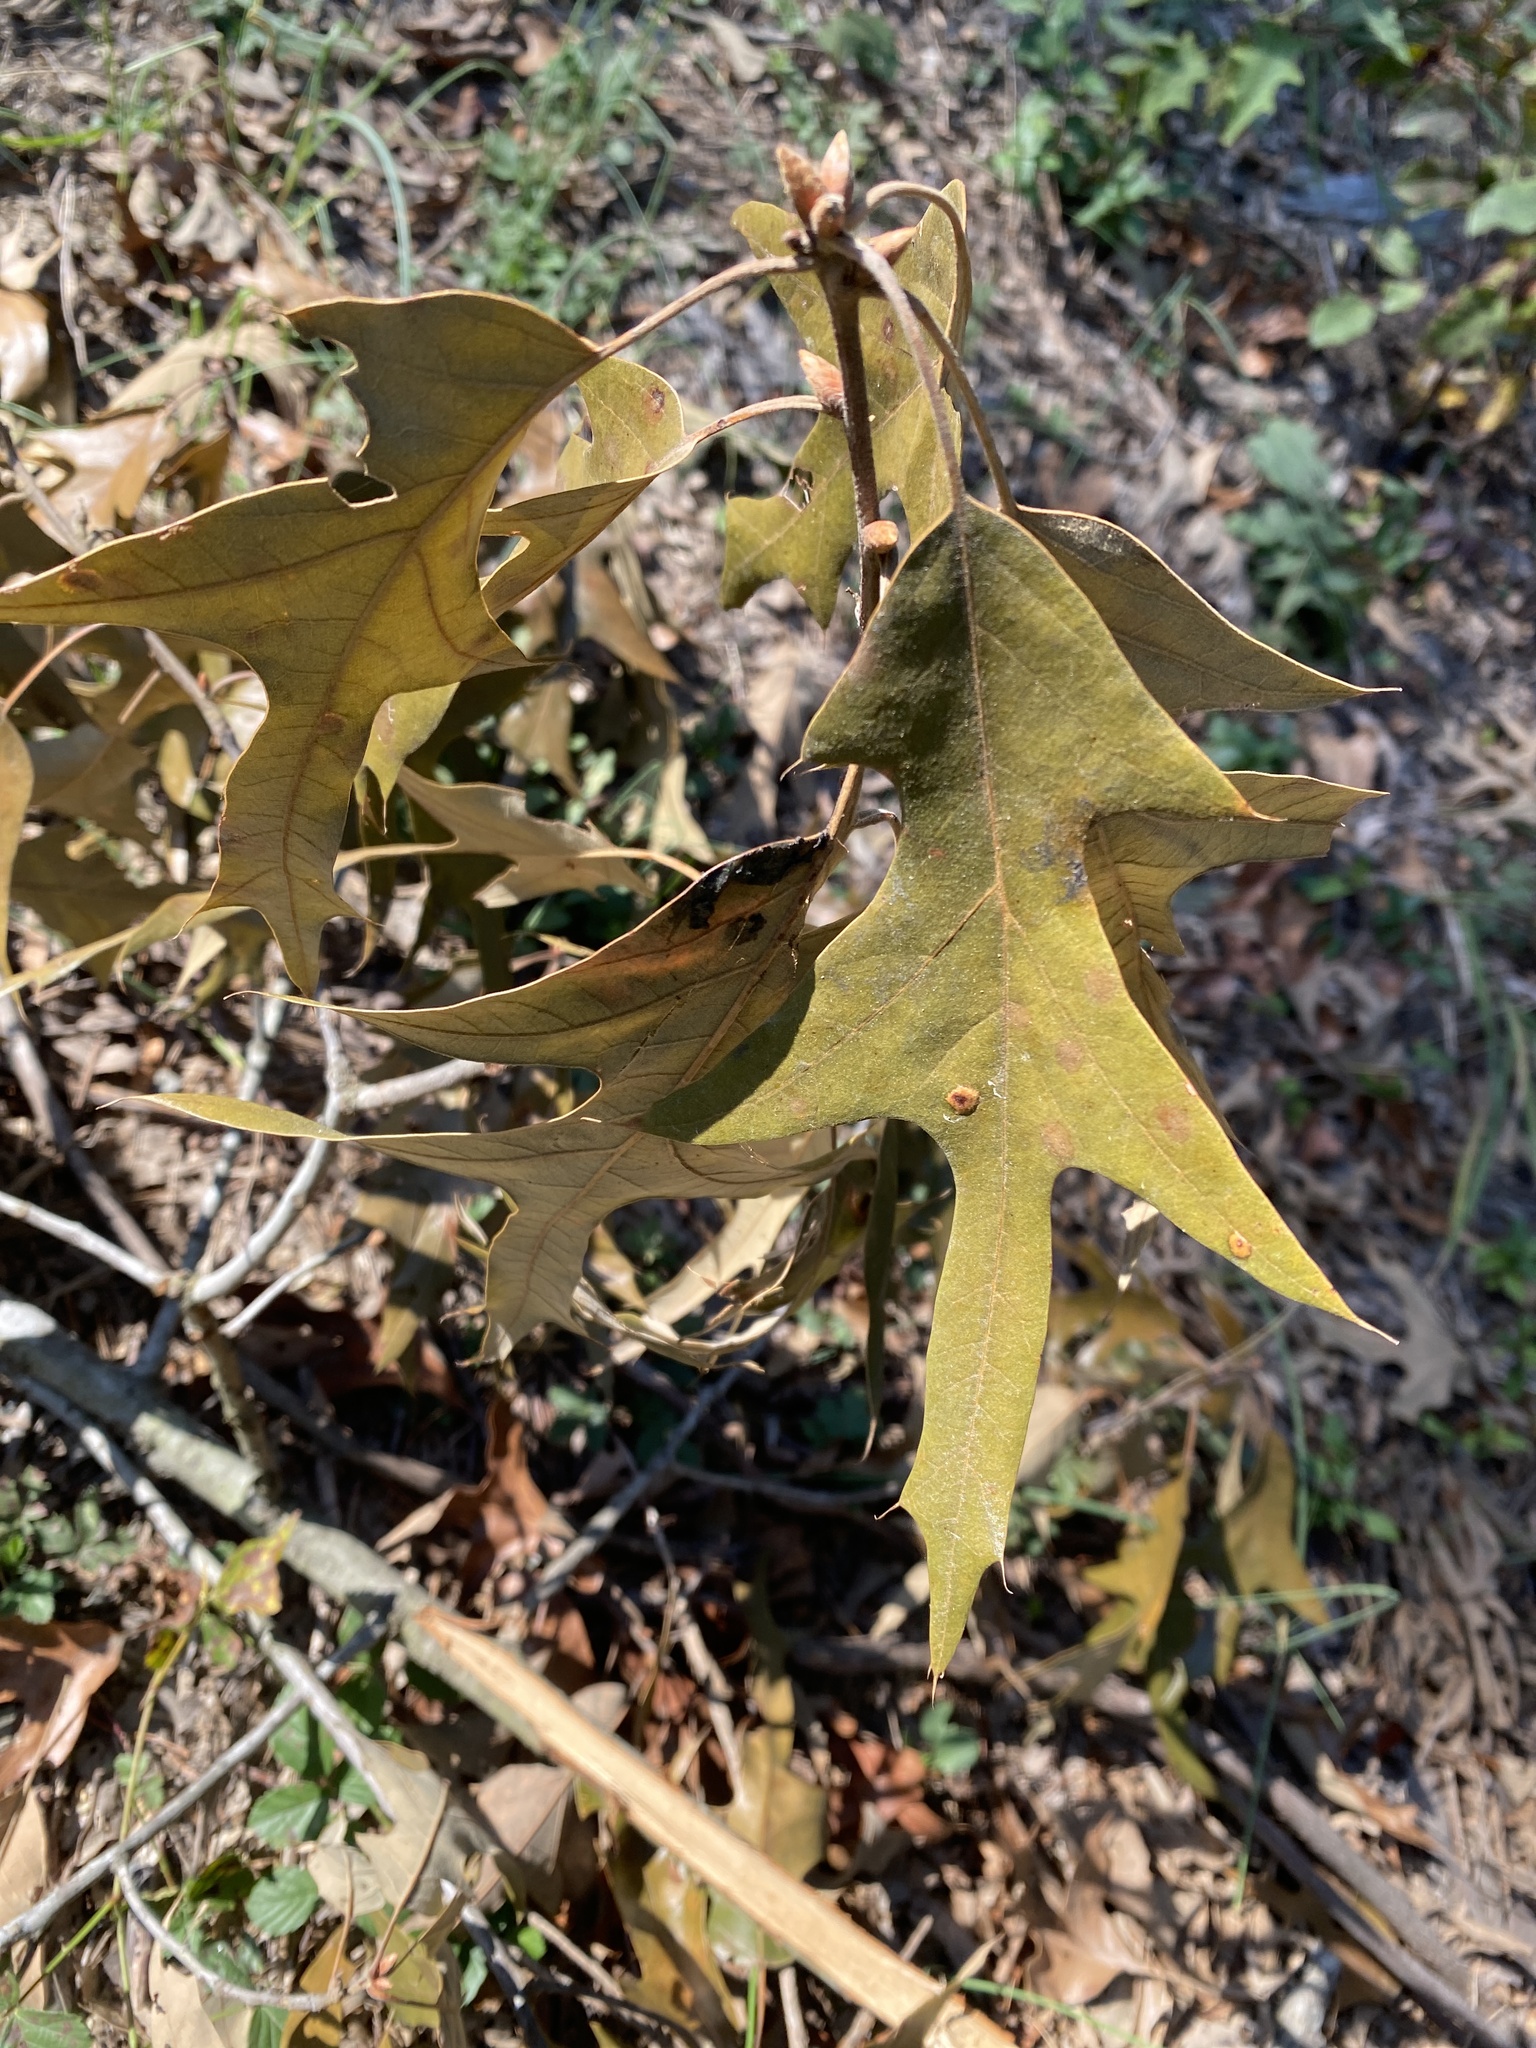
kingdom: Plantae
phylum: Tracheophyta
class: Magnoliopsida
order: Fagales
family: Fagaceae
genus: Quercus
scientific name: Quercus falcata
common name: Southern red oak
